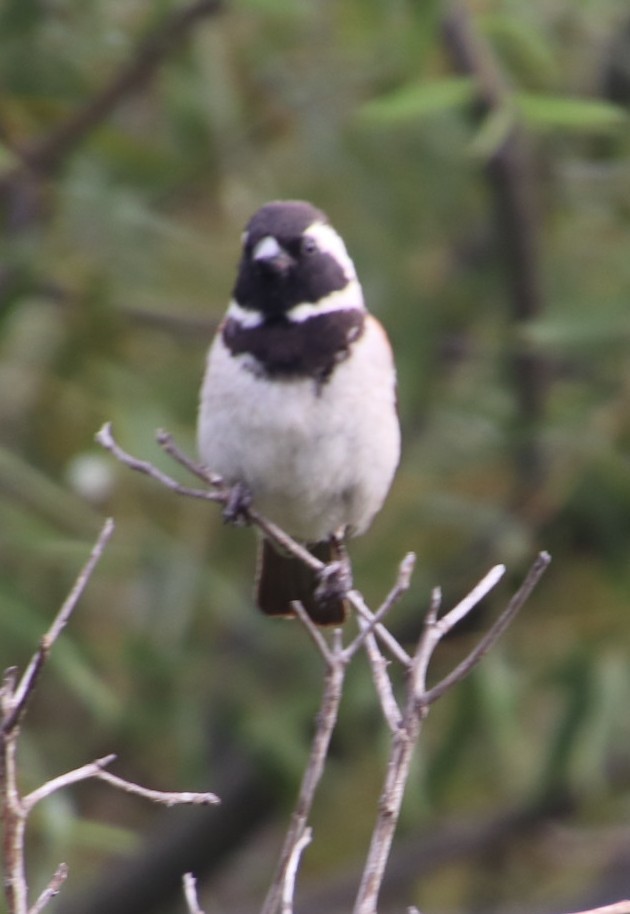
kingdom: Animalia
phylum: Chordata
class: Aves
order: Passeriformes
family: Passeridae
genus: Passer
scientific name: Passer melanurus
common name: Cape sparrow
